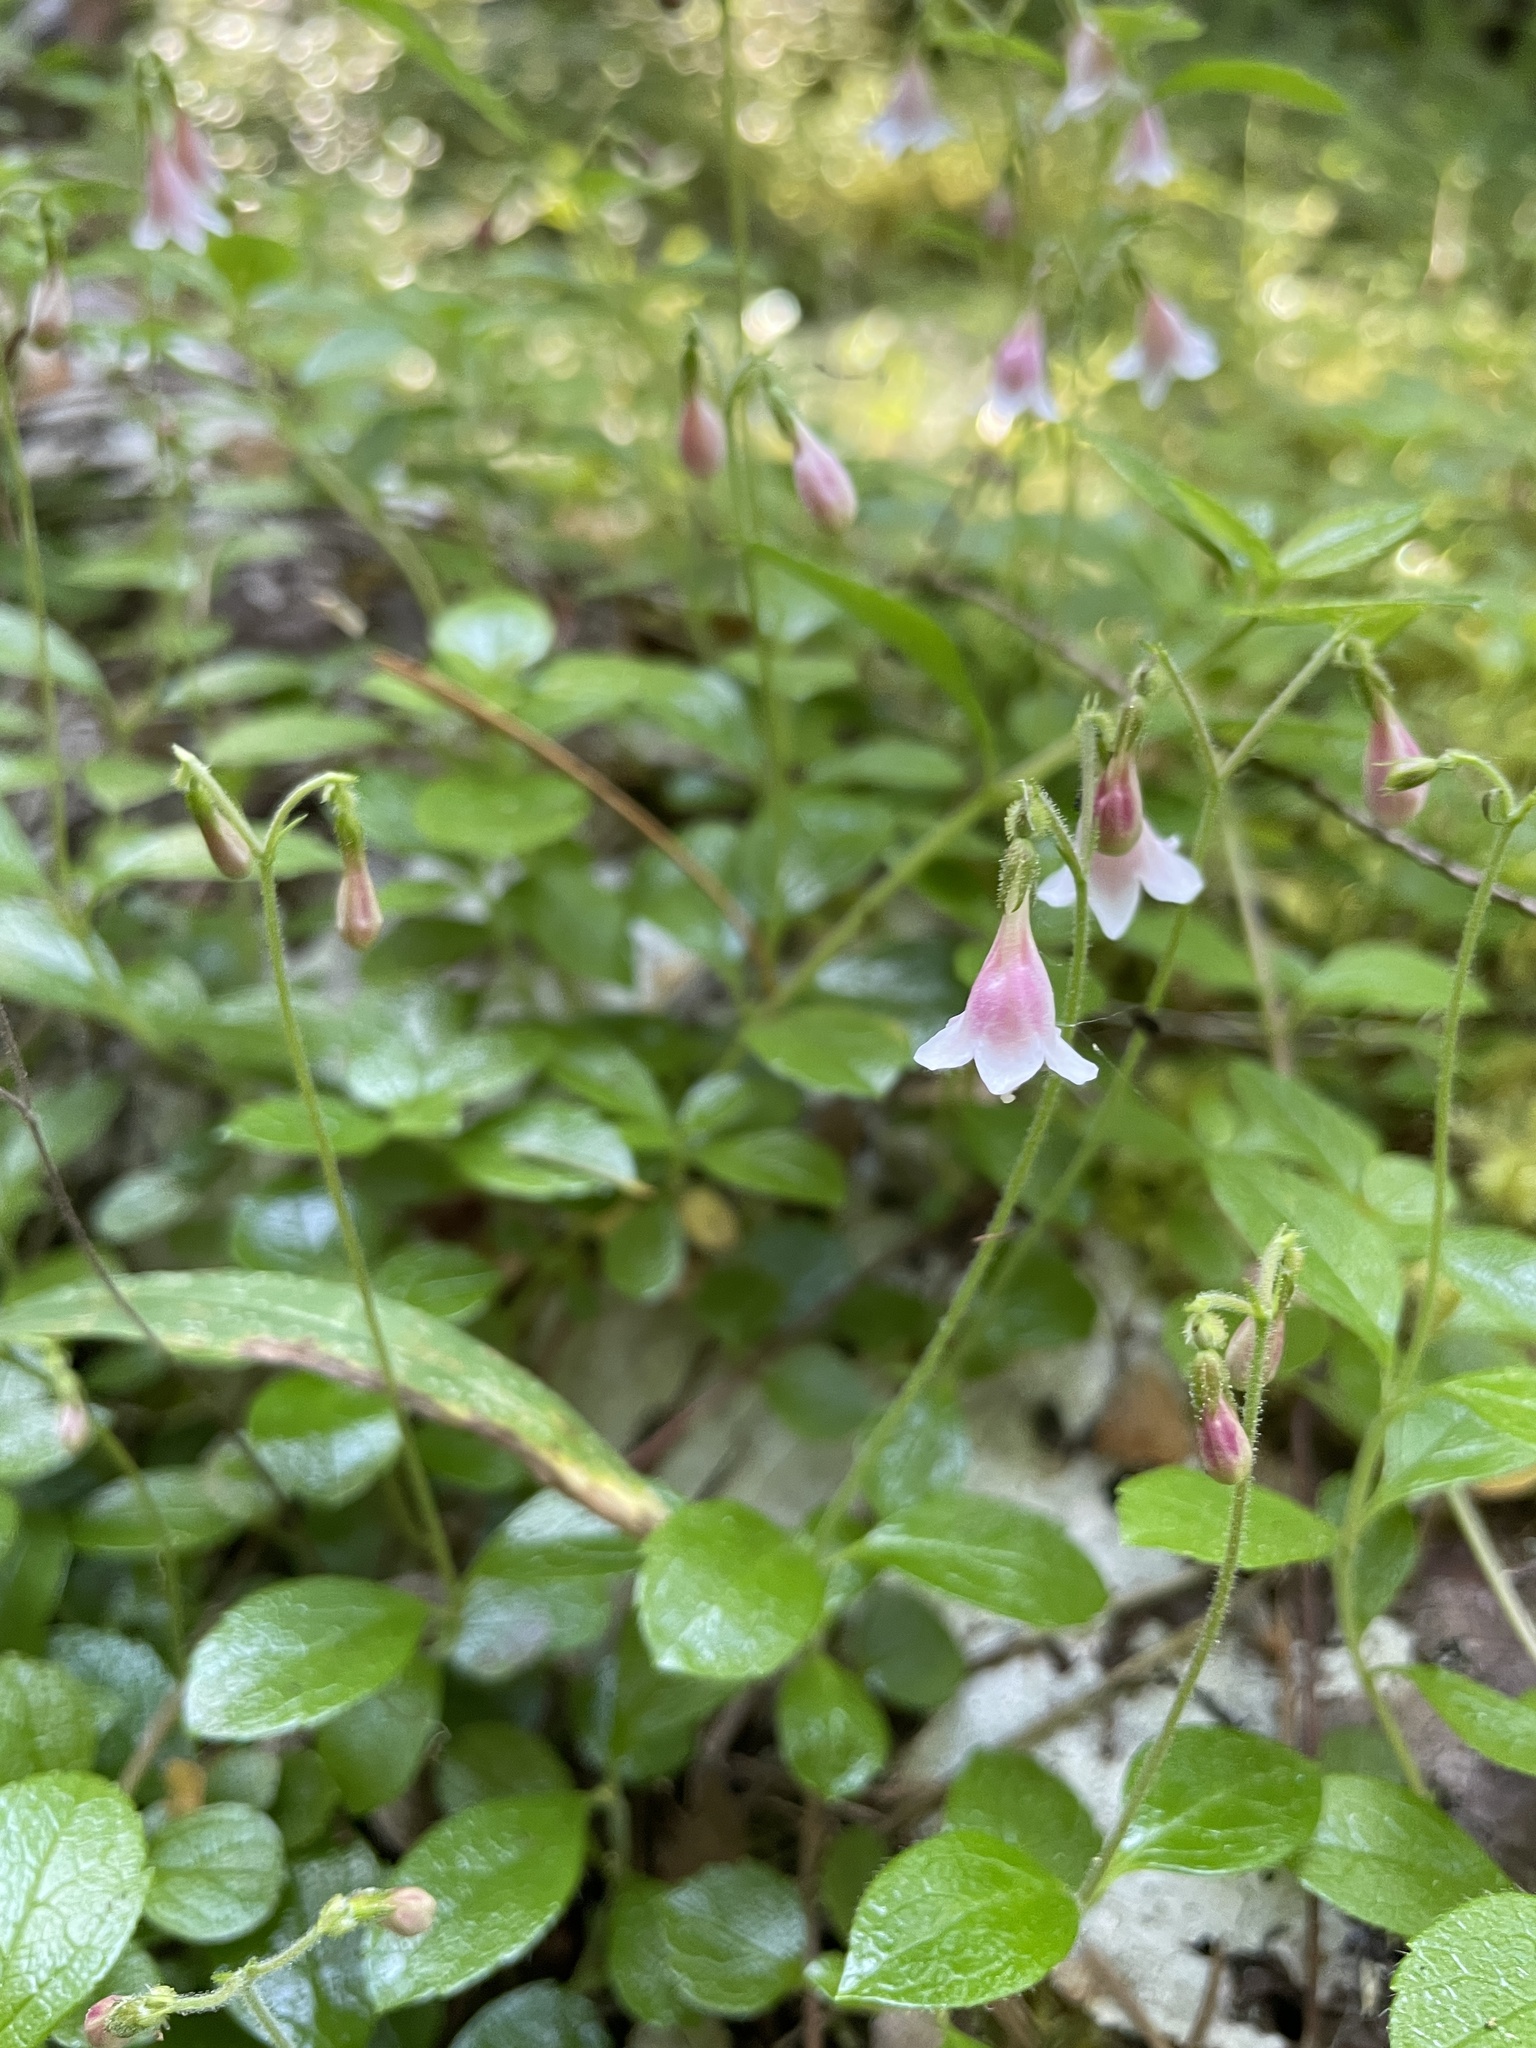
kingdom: Plantae
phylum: Tracheophyta
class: Magnoliopsida
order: Dipsacales
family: Caprifoliaceae
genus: Linnaea
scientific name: Linnaea borealis
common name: Twinflower
